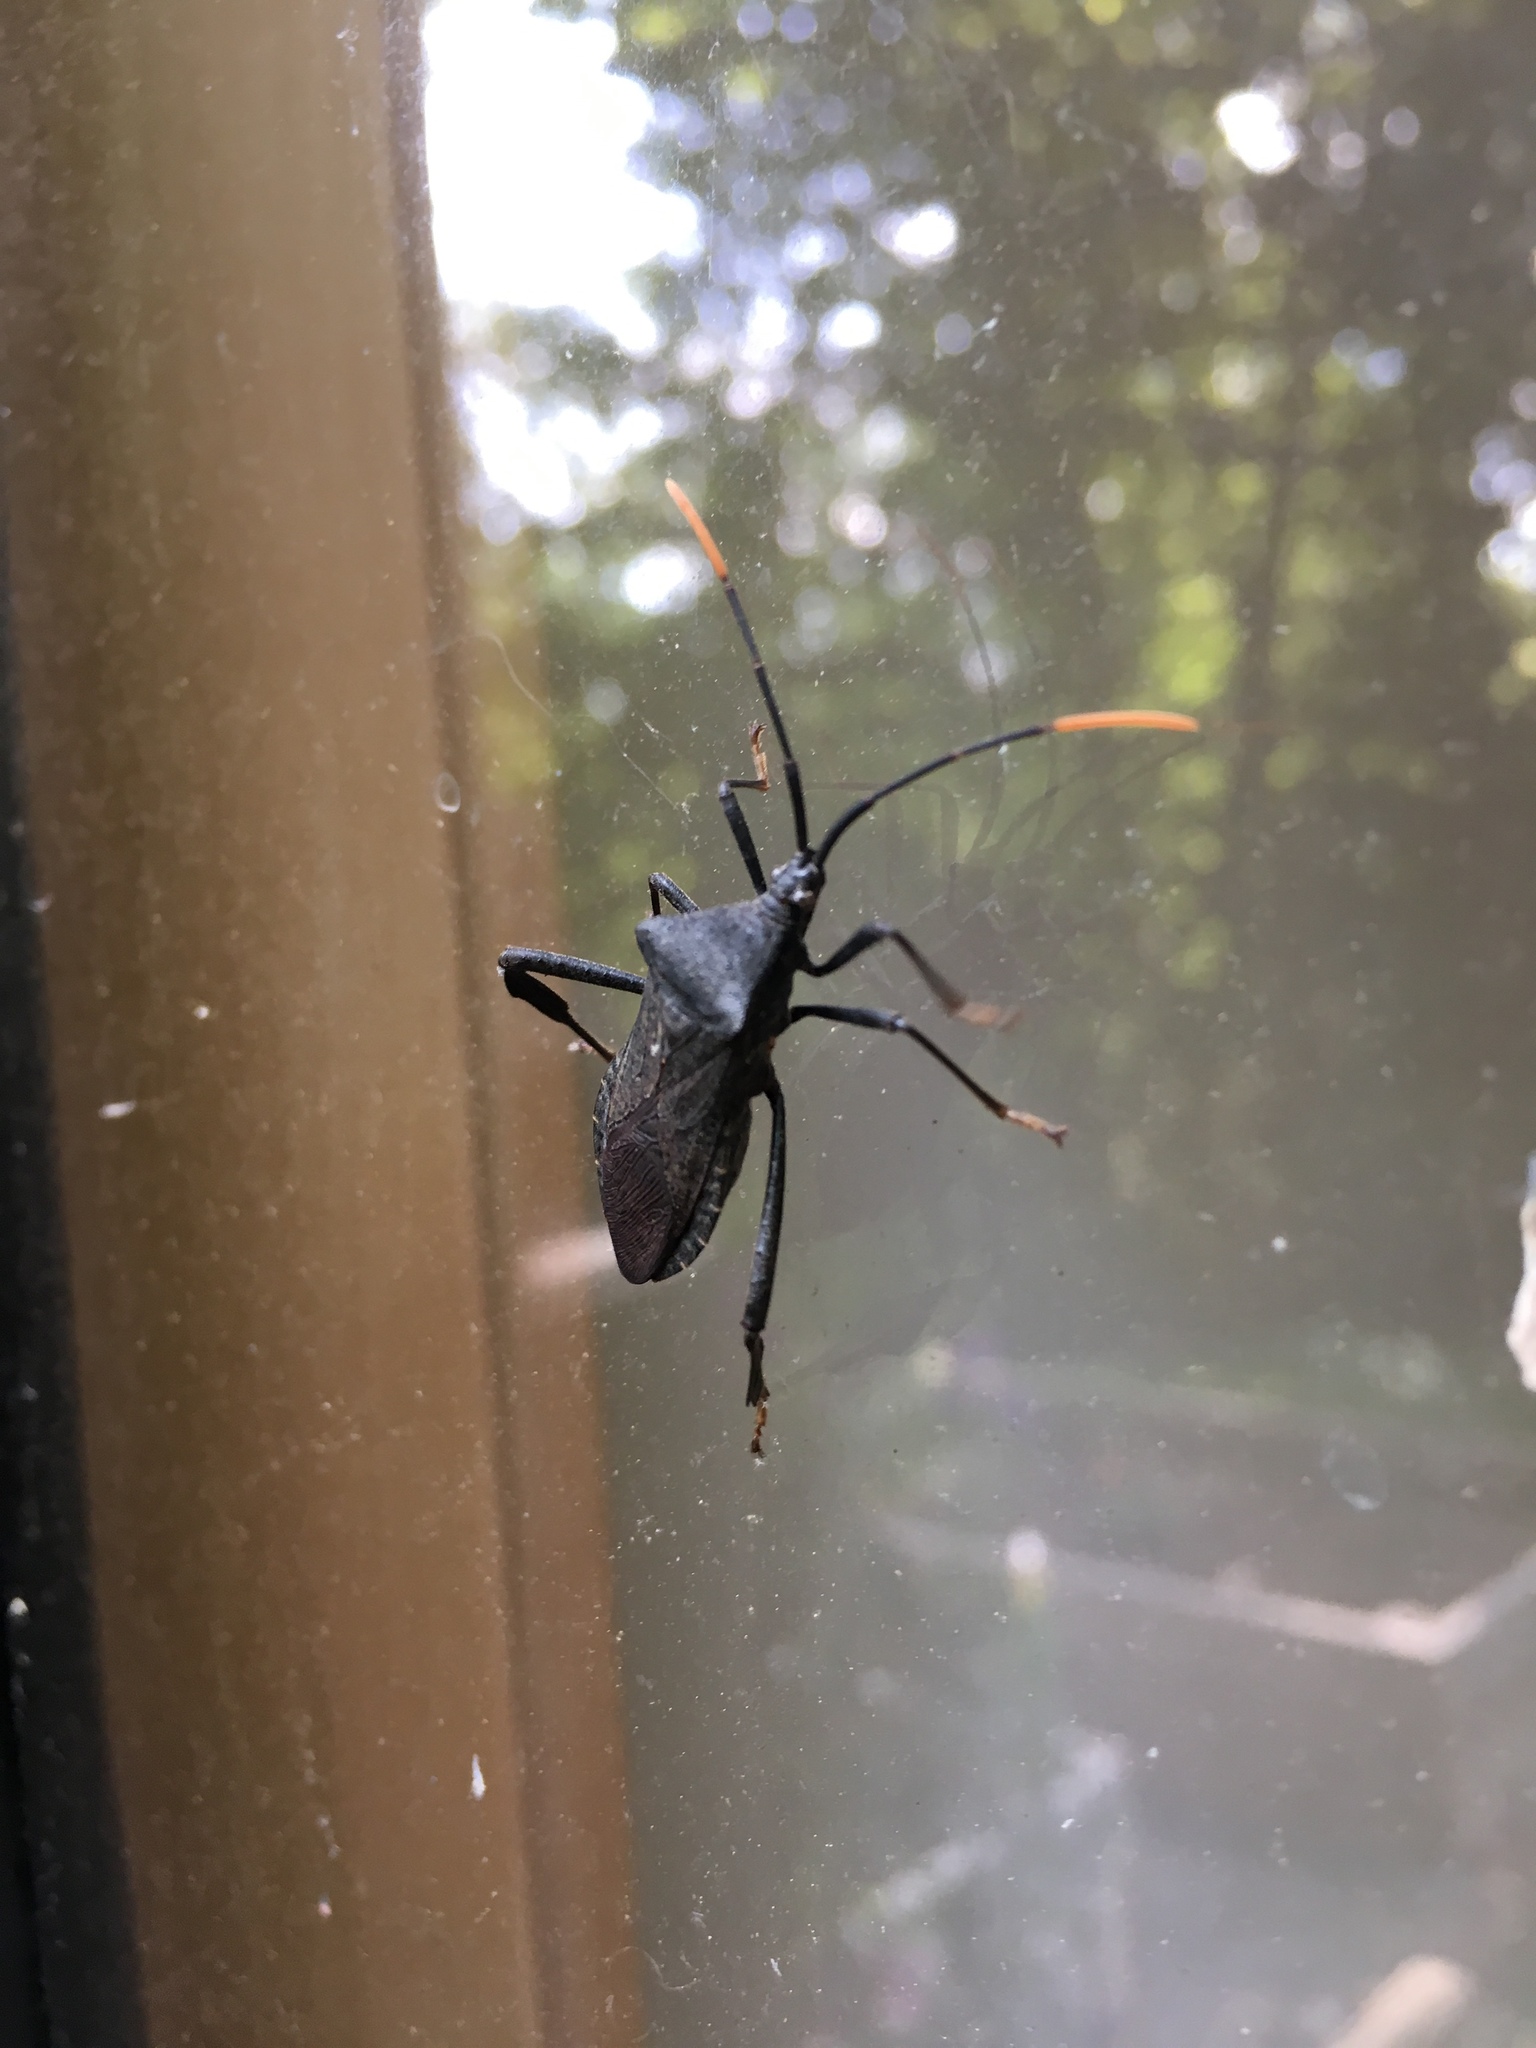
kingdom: Animalia
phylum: Arthropoda
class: Insecta
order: Hemiptera
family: Coreidae
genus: Acanthocephala
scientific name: Acanthocephala terminalis
